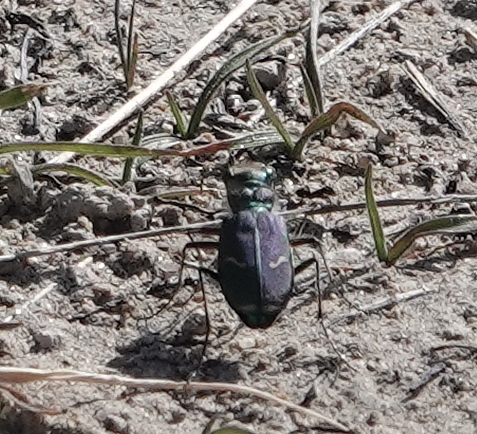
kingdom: Animalia
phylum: Arthropoda
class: Insecta
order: Coleoptera
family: Carabidae
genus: Cicindela
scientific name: Cicindela purpurea
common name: Cow path tiger beetle
